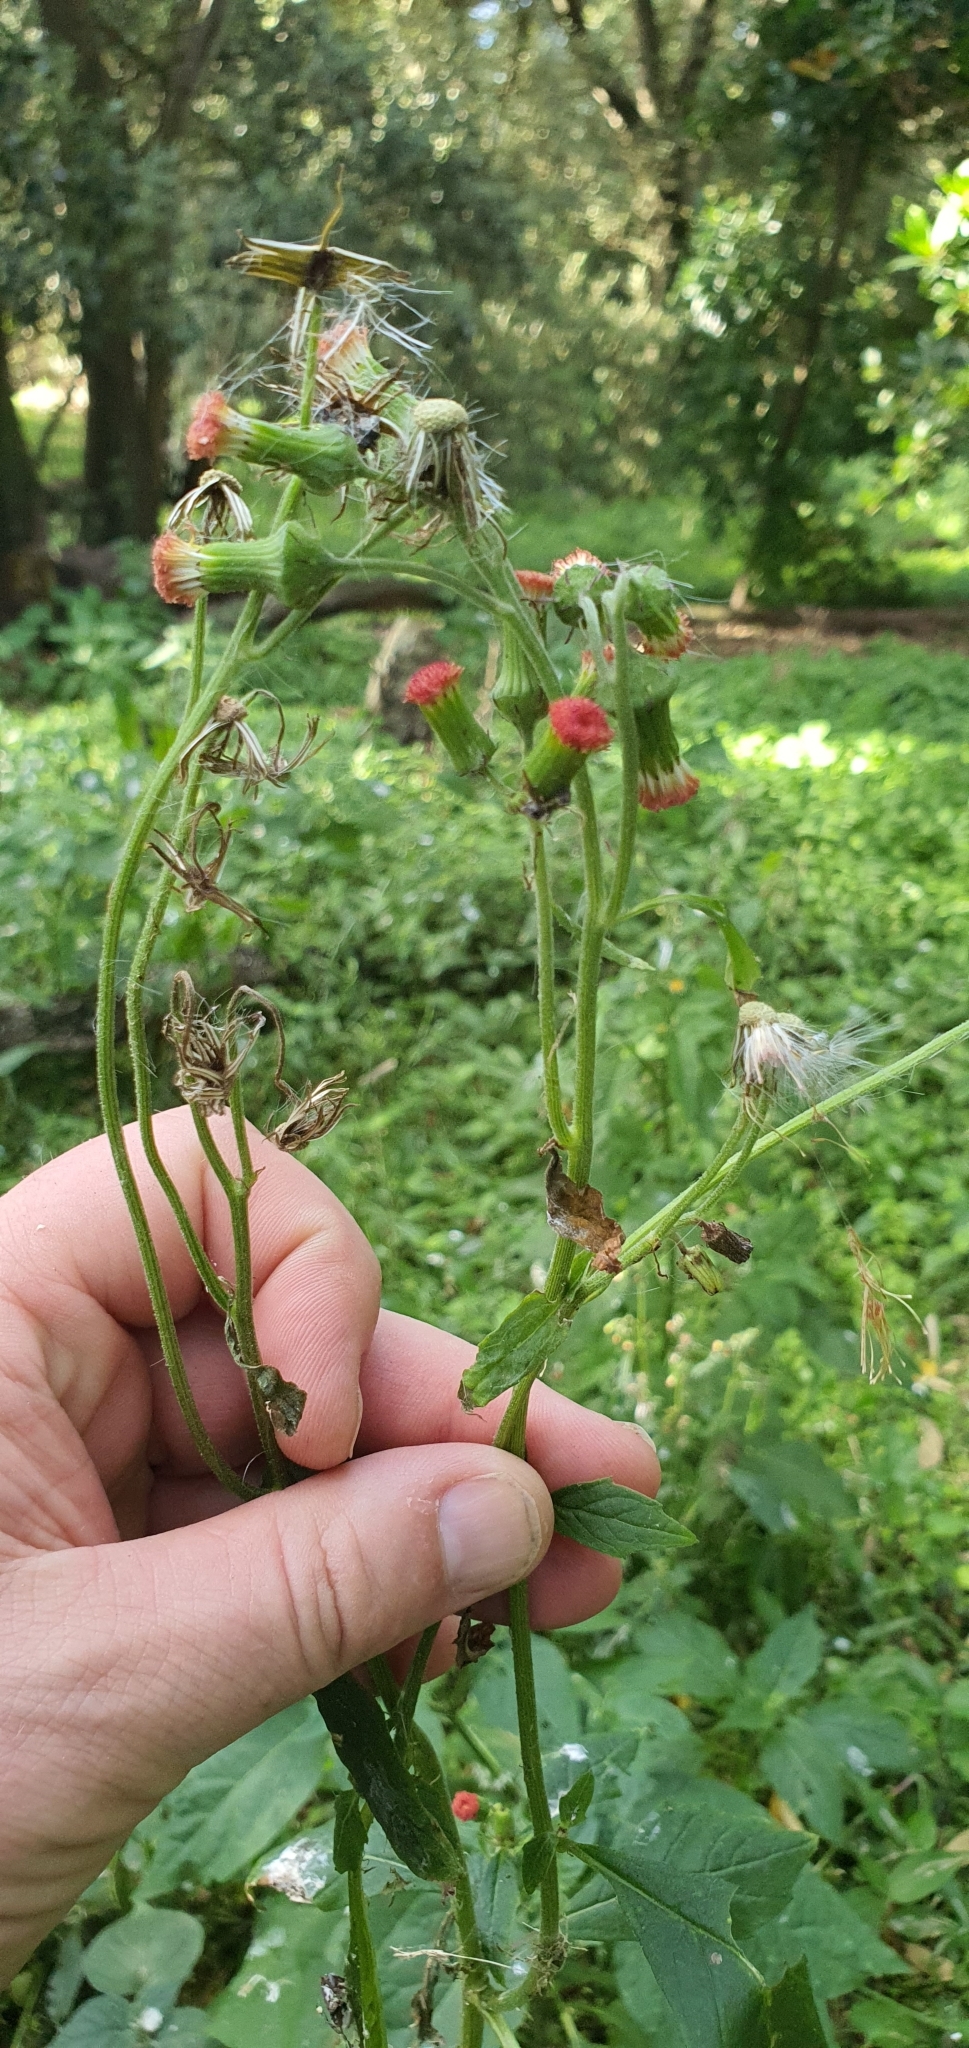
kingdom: Plantae
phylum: Tracheophyta
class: Magnoliopsida
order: Asterales
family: Asteraceae
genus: Crassocephalum
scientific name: Crassocephalum crepidioides
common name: Redflower ragleaf
